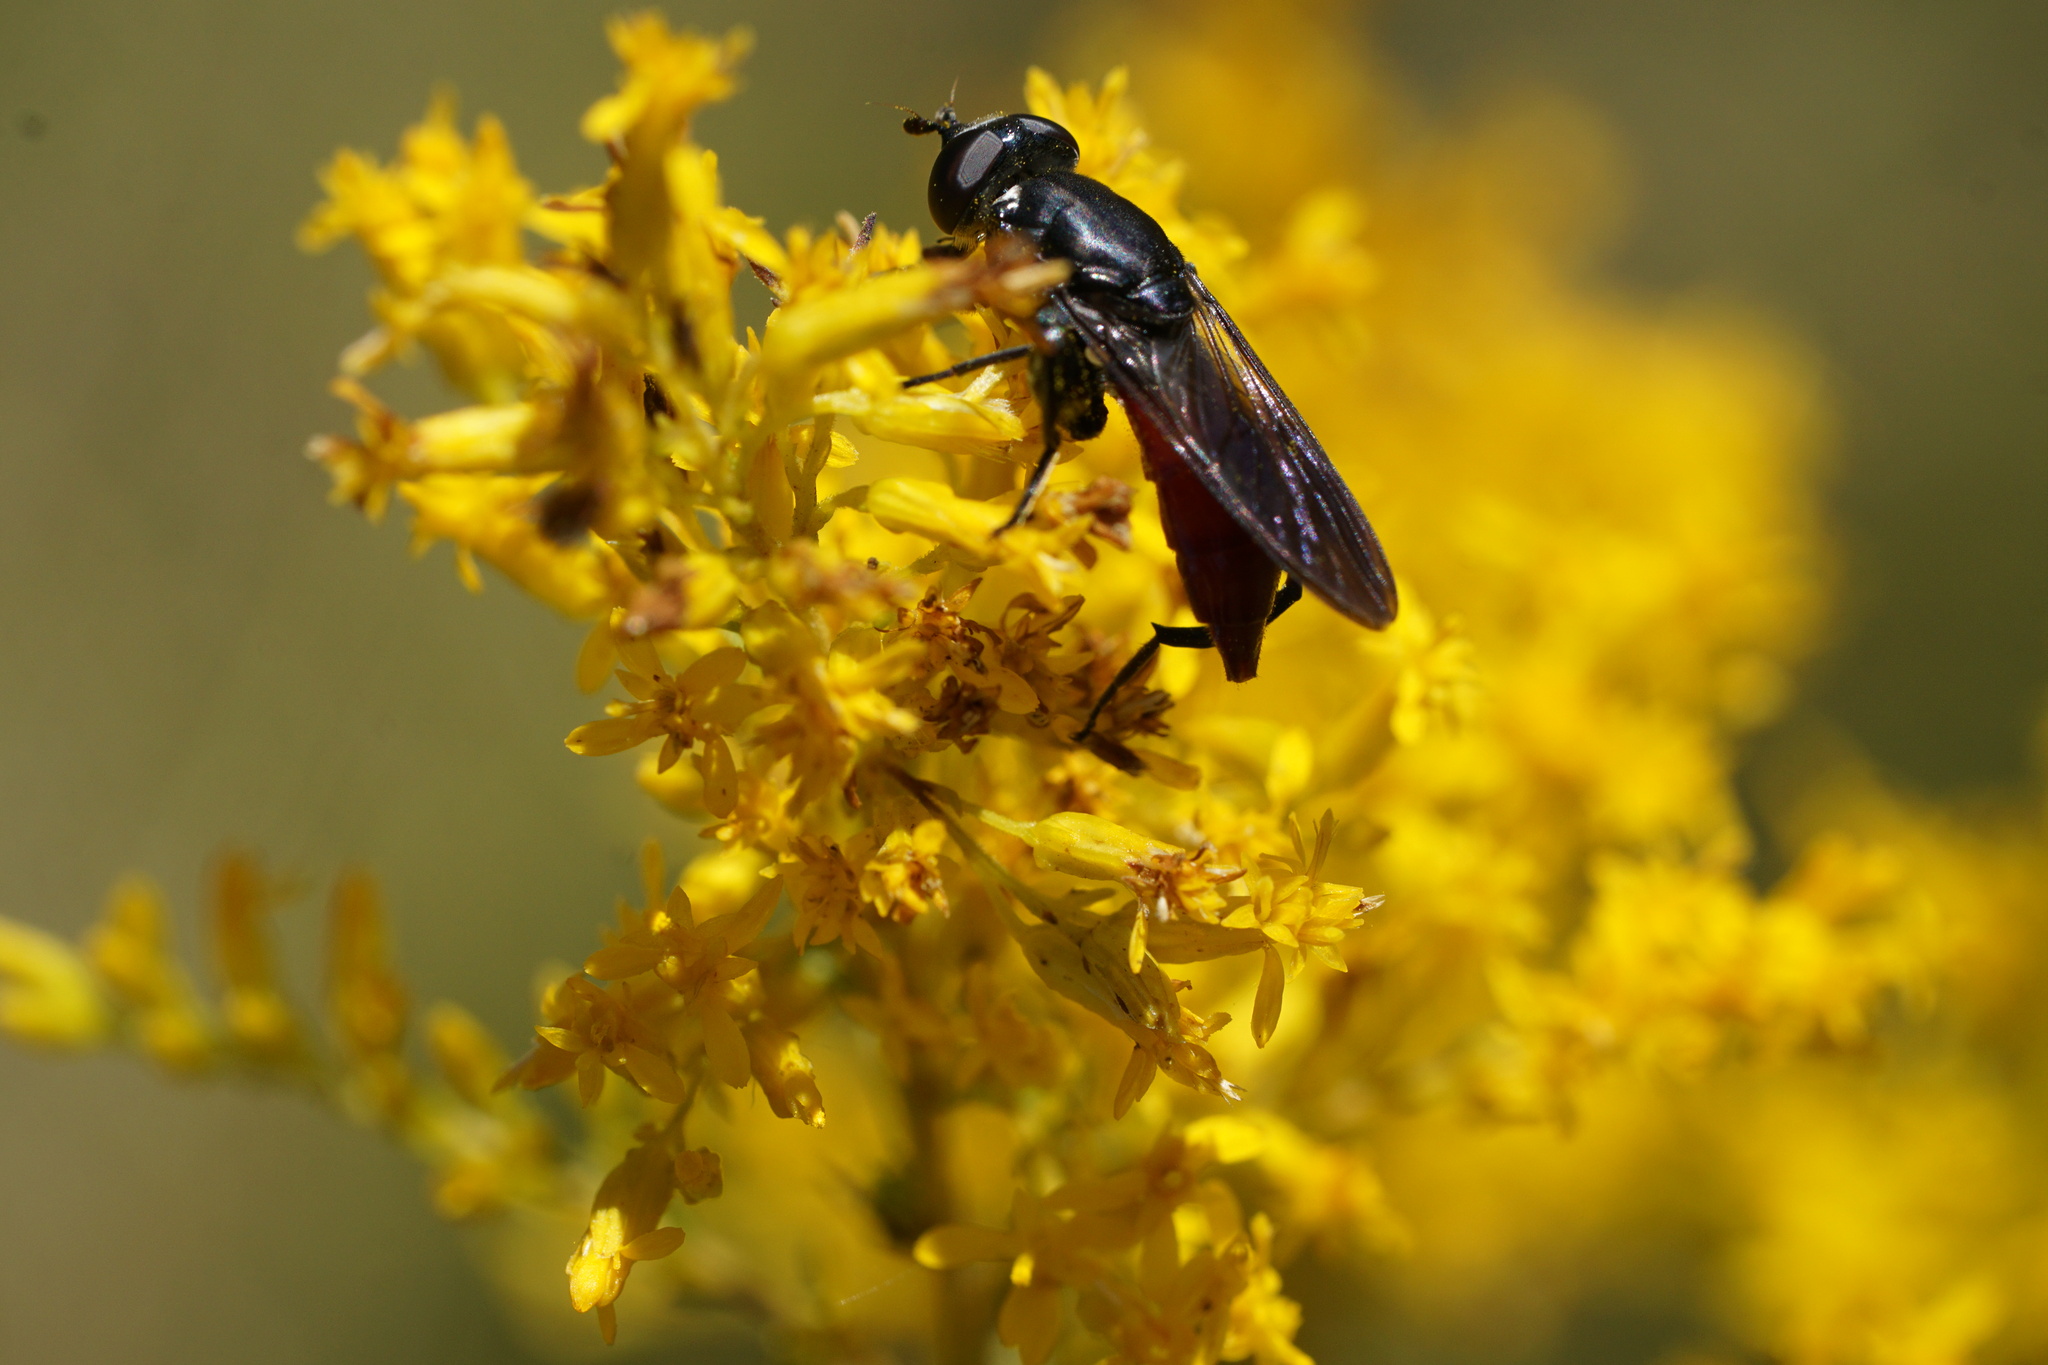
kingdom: Animalia
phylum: Arthropoda
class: Insecta
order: Diptera
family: Syrphidae
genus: Chalcosyrphus
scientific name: Chalcosyrphus piger
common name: Short-haired leafwalker
